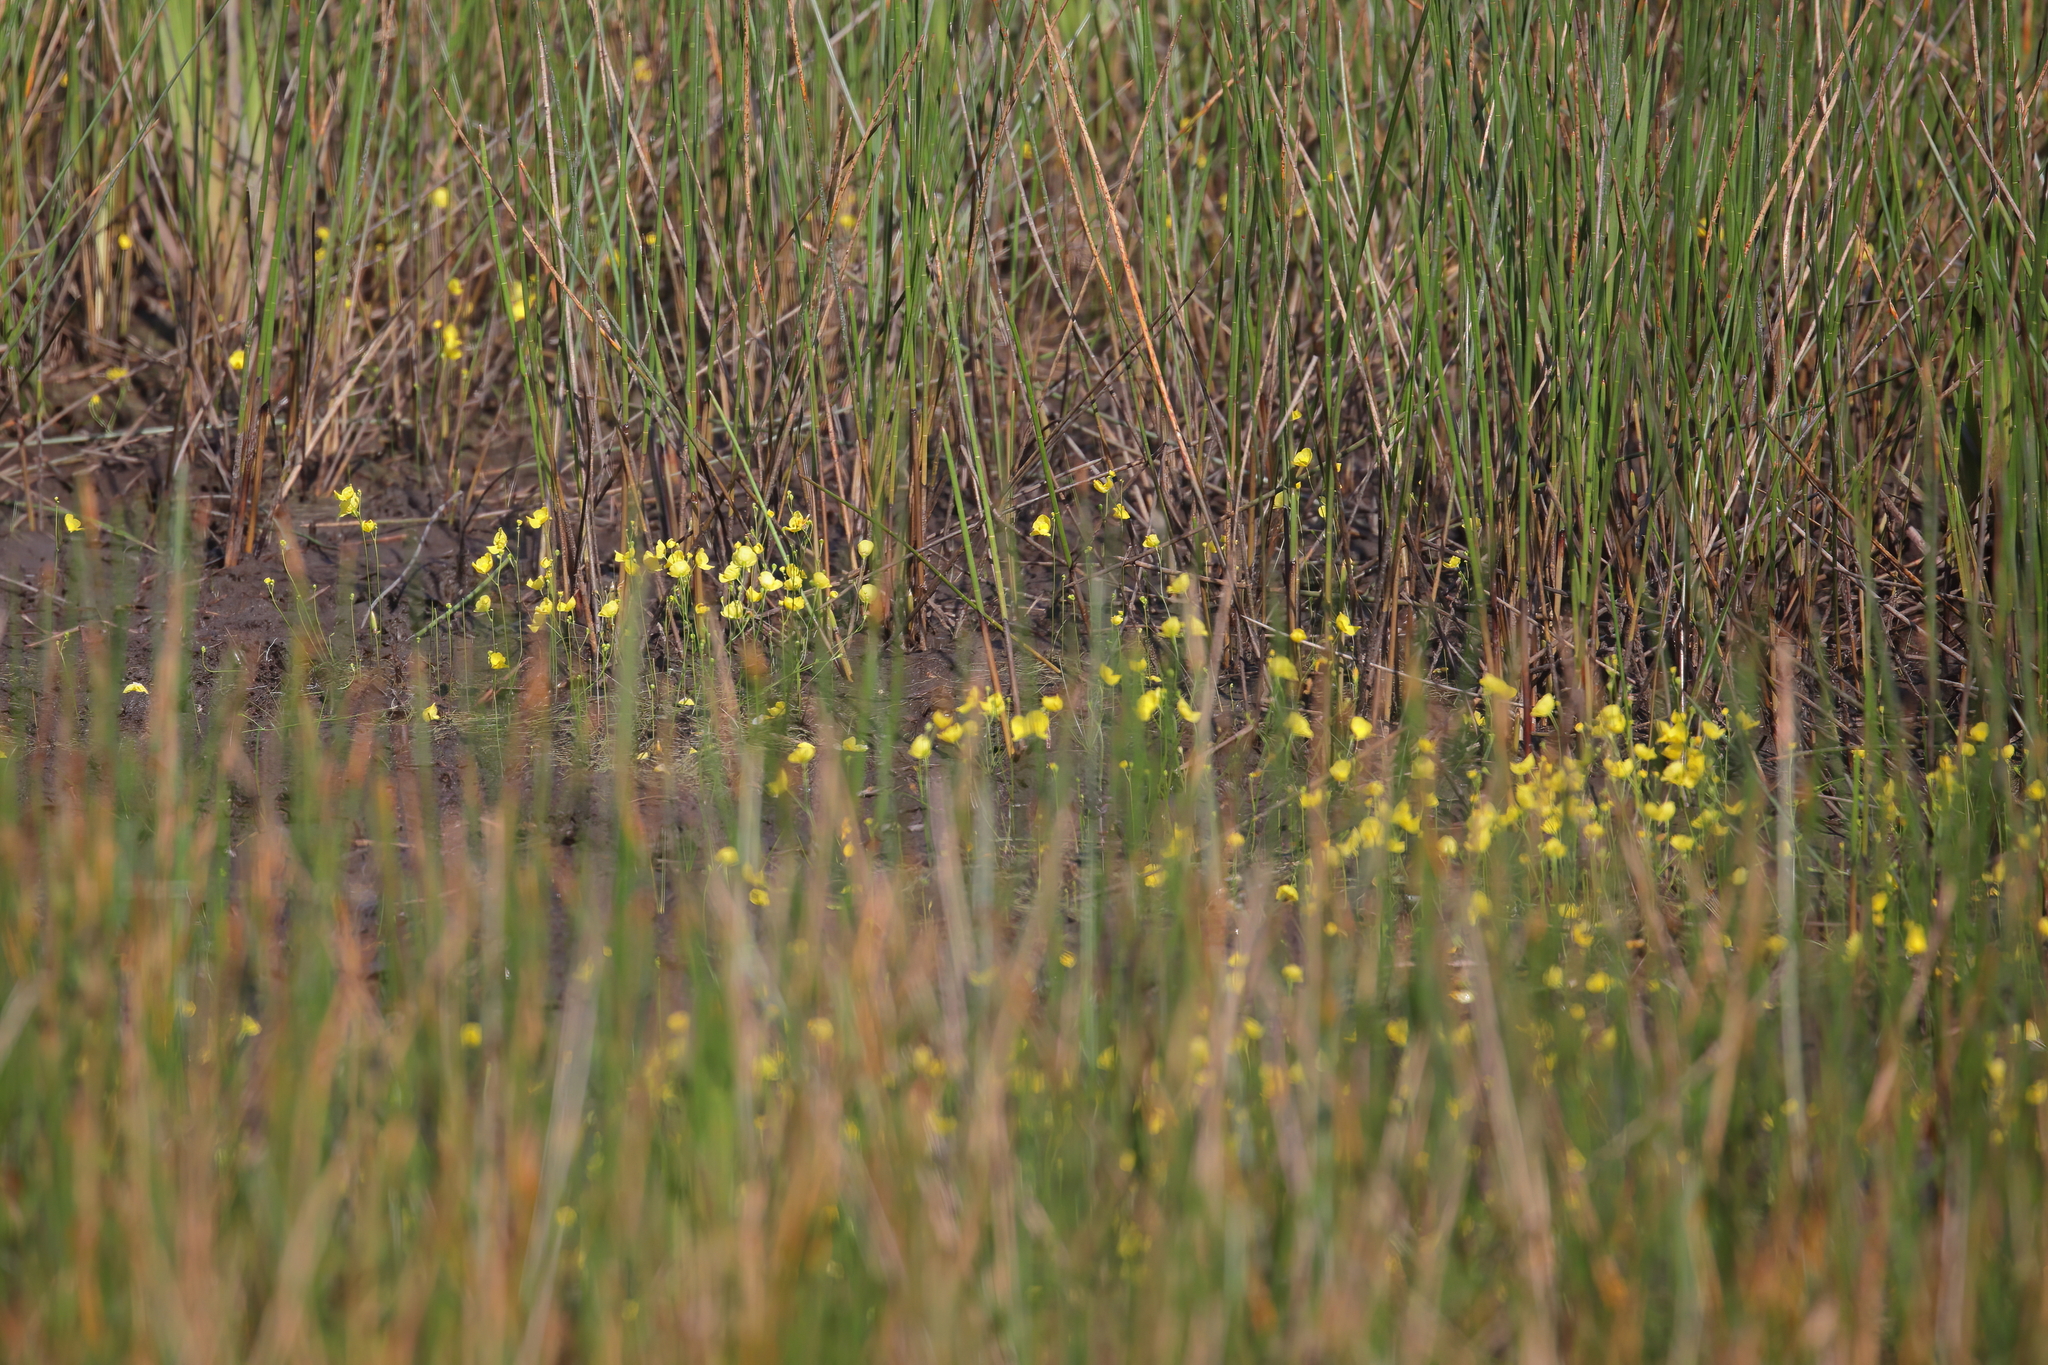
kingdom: Plantae
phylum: Tracheophyta
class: Magnoliopsida
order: Lamiales
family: Lentibulariaceae
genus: Utricularia
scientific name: Utricularia gibba
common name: Humped bladderwort
